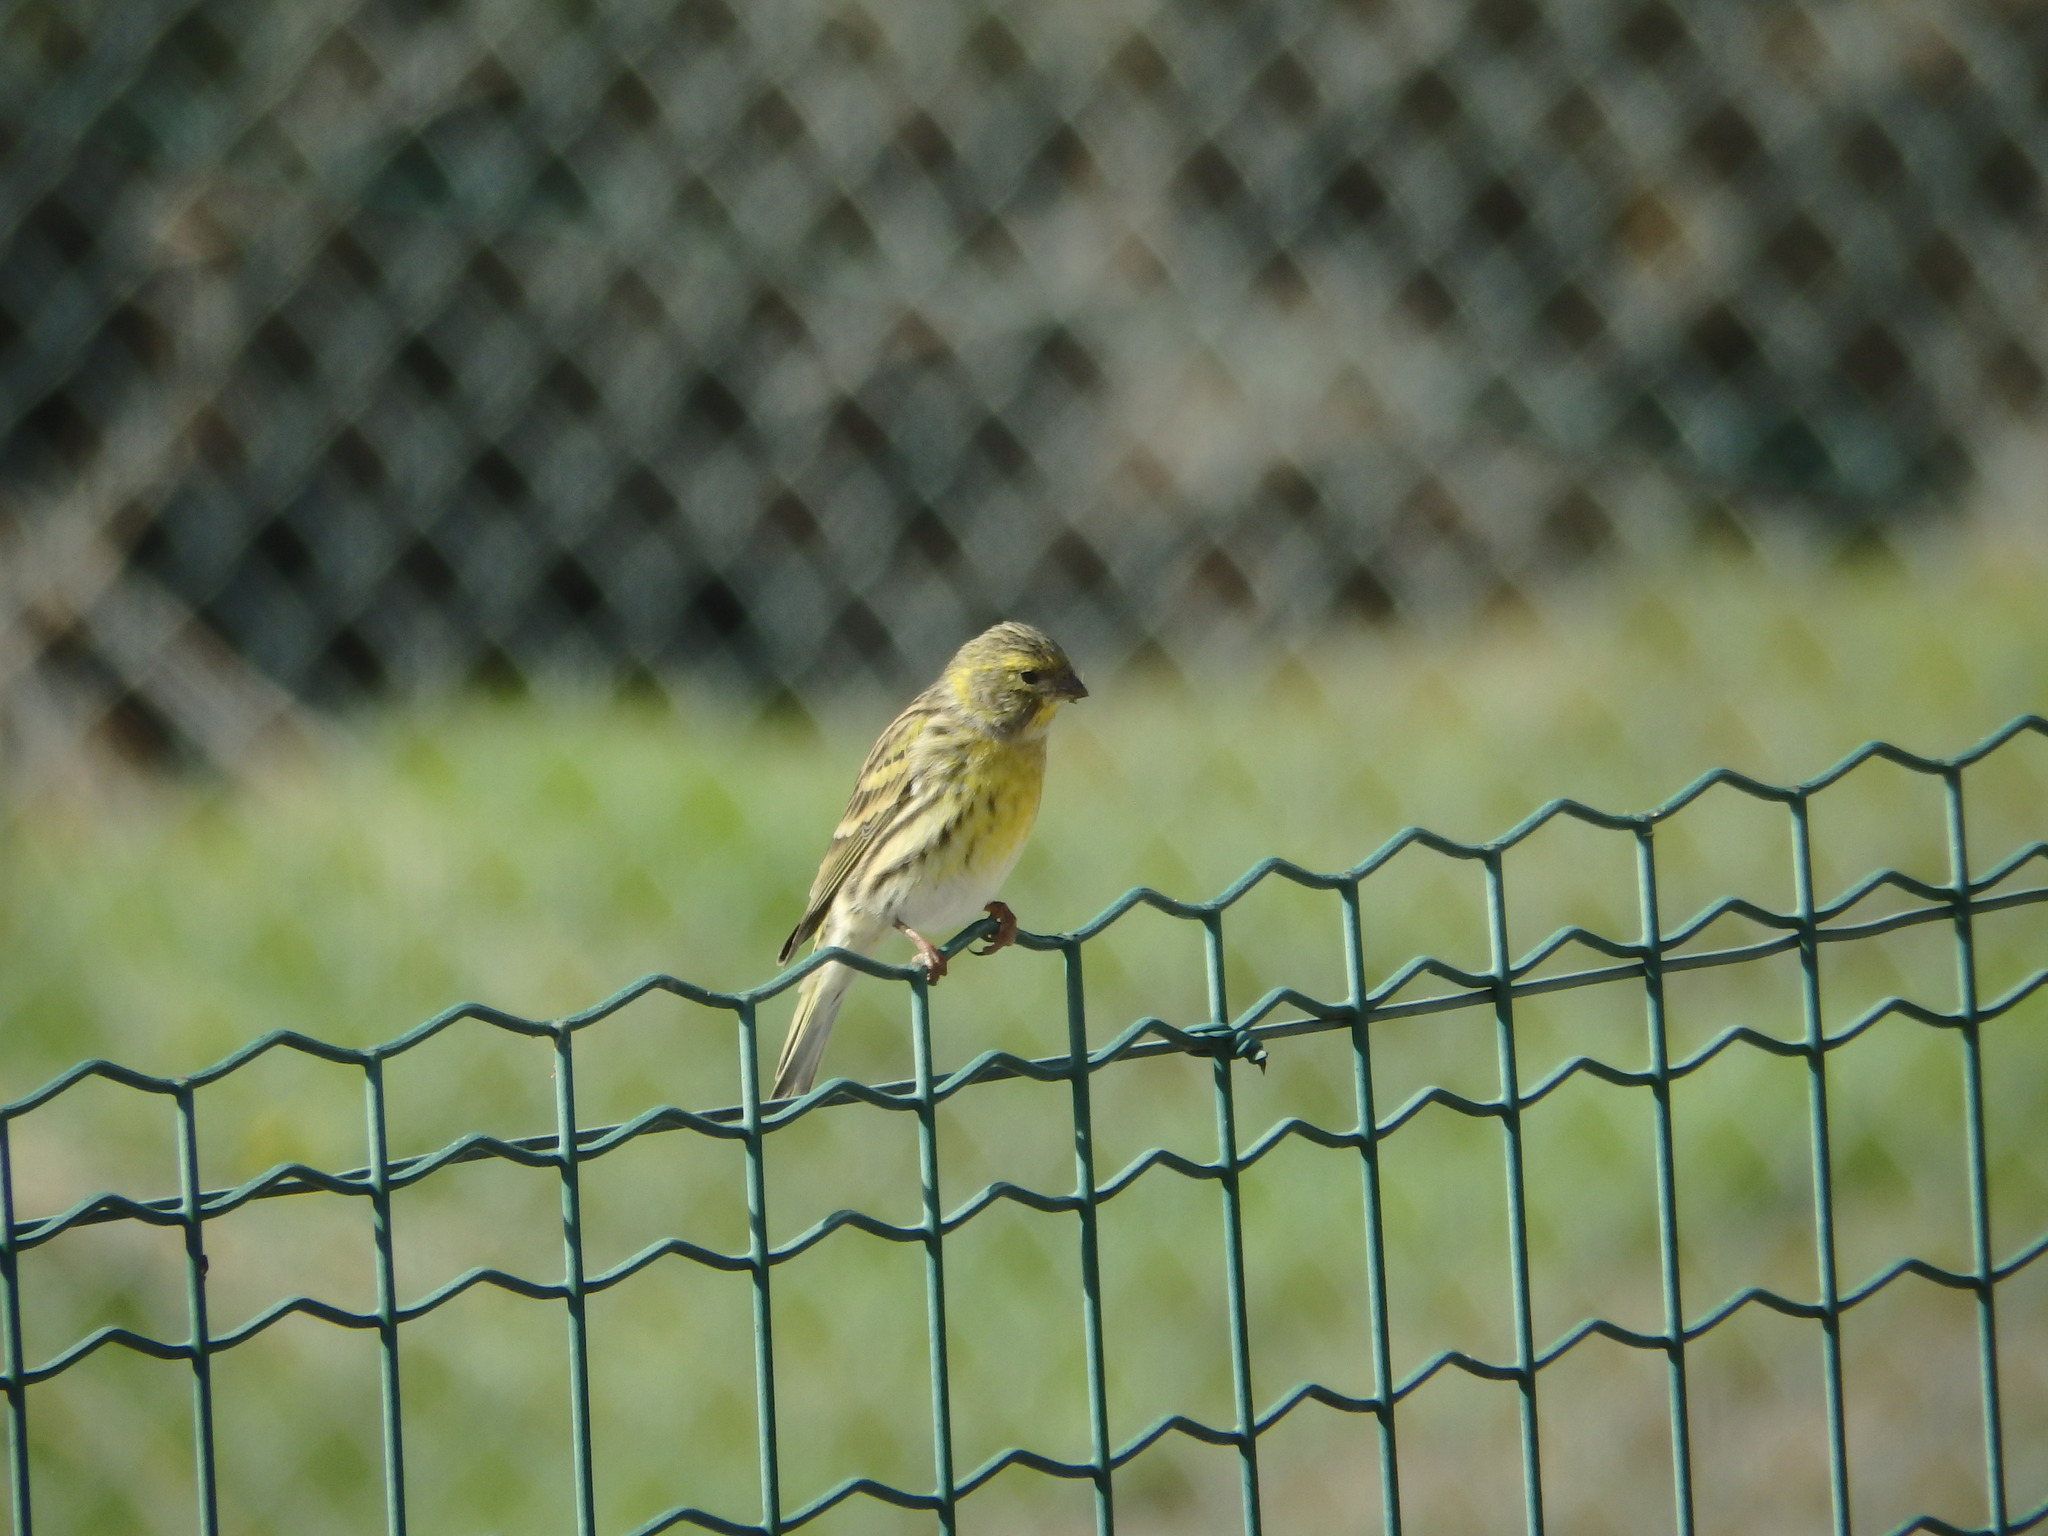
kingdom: Animalia
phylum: Chordata
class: Aves
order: Passeriformes
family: Fringillidae
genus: Serinus
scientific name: Serinus serinus
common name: European serin
